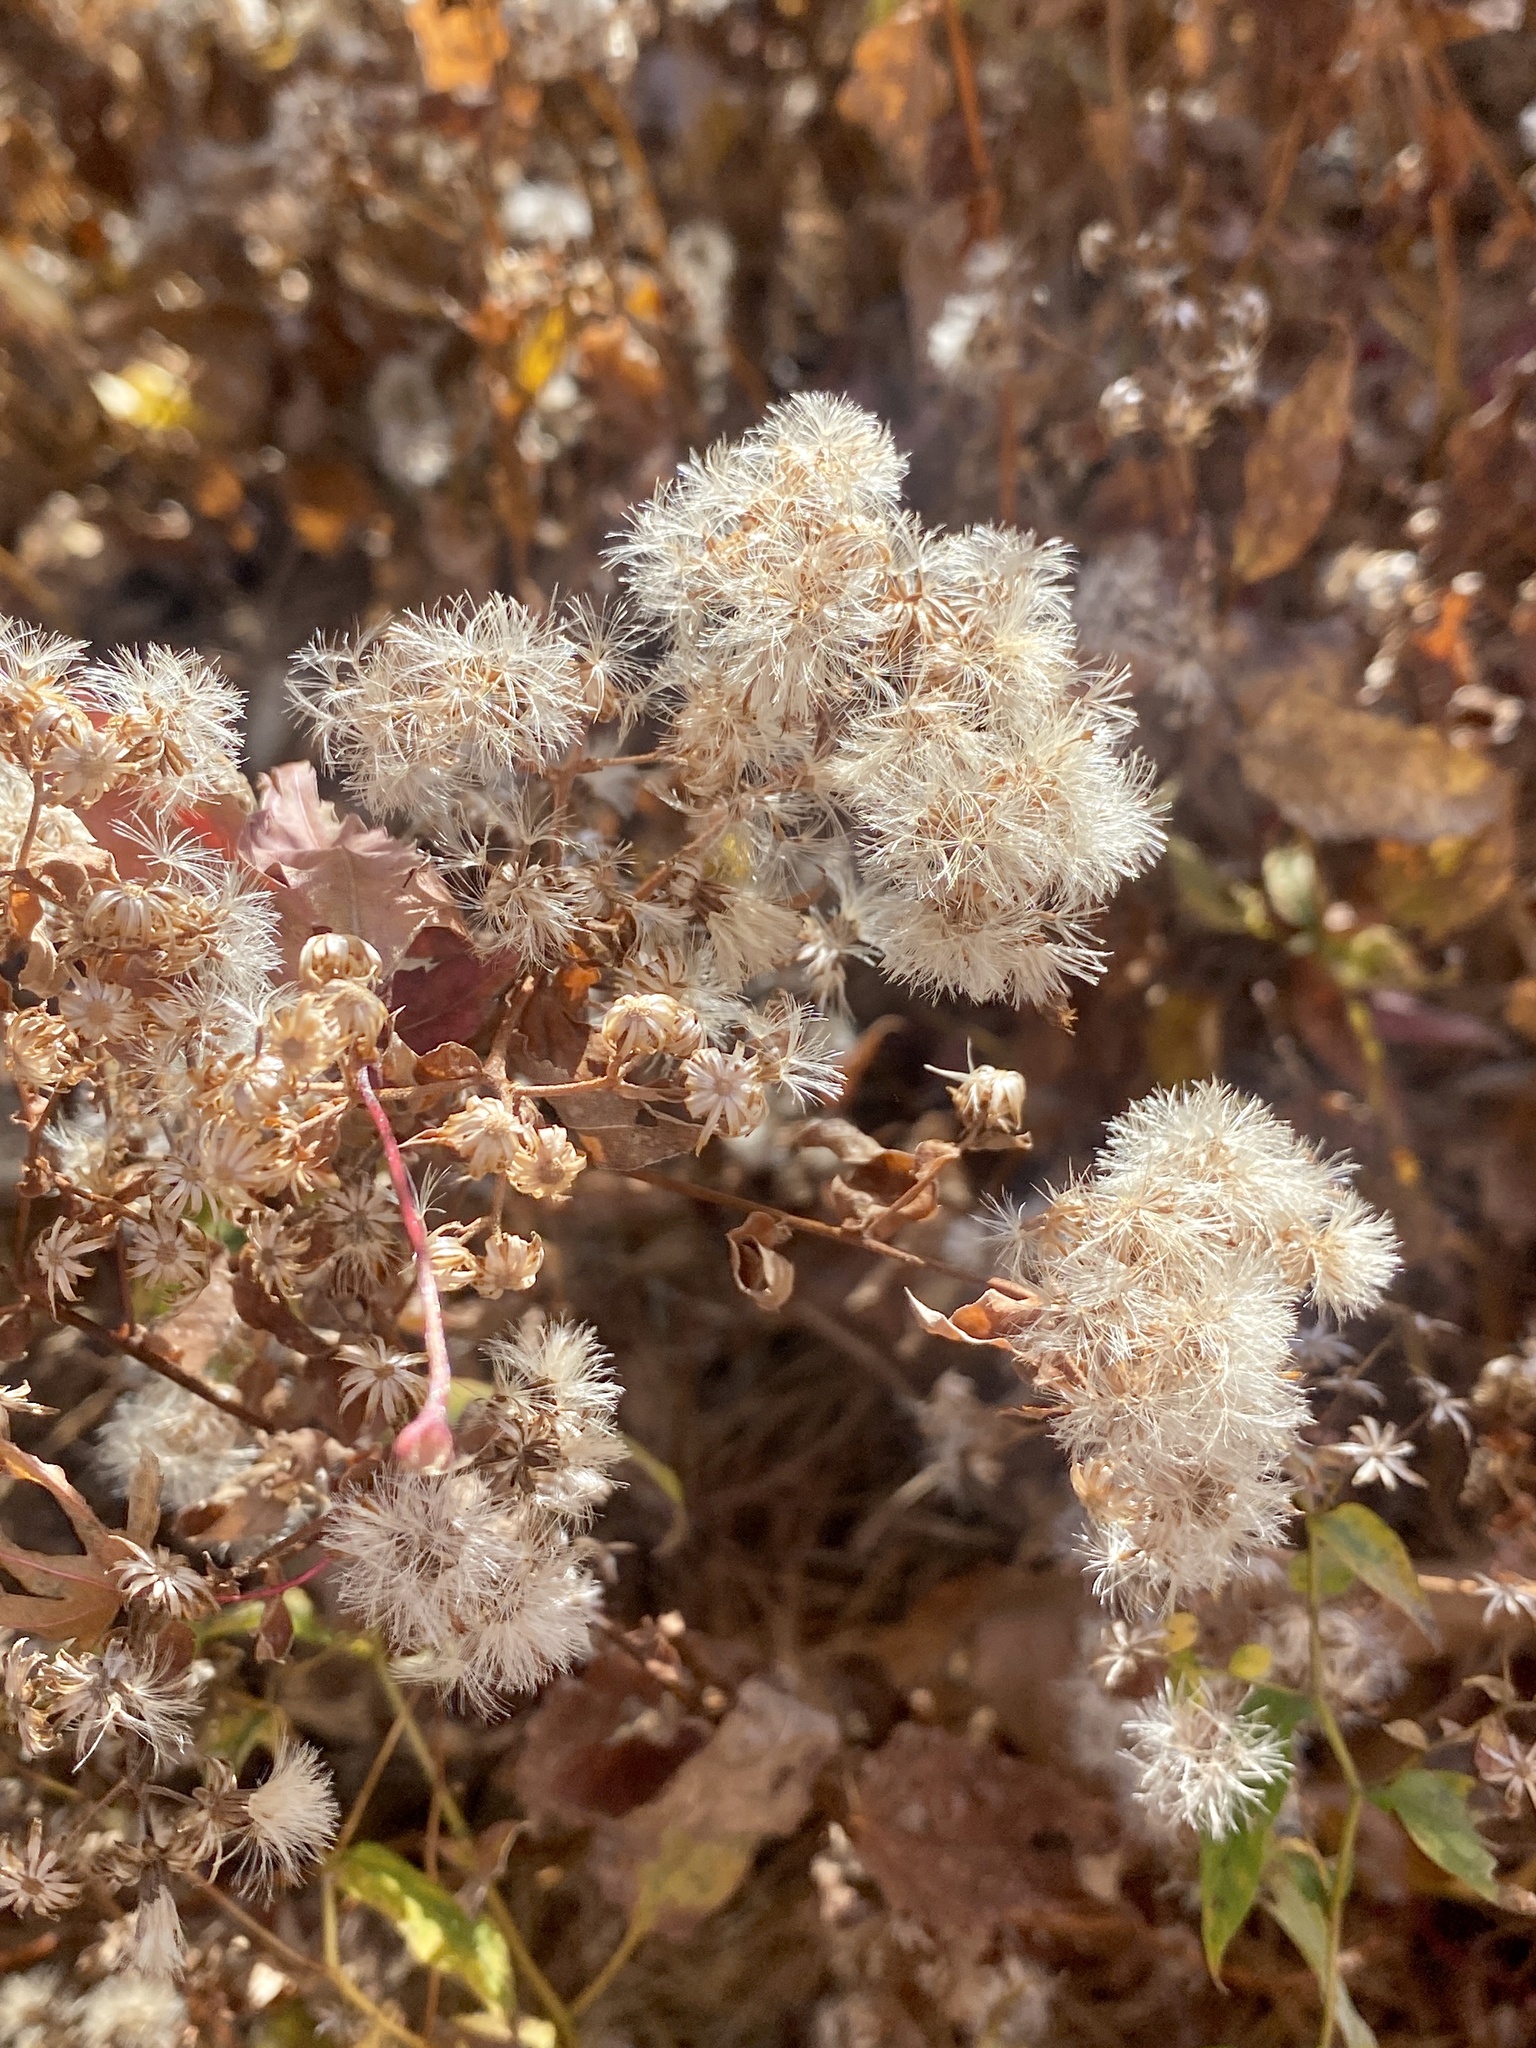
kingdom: Plantae
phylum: Tracheophyta
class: Magnoliopsida
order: Asterales
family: Asteraceae
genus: Eurybia
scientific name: Eurybia divaricata
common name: White wood aster
